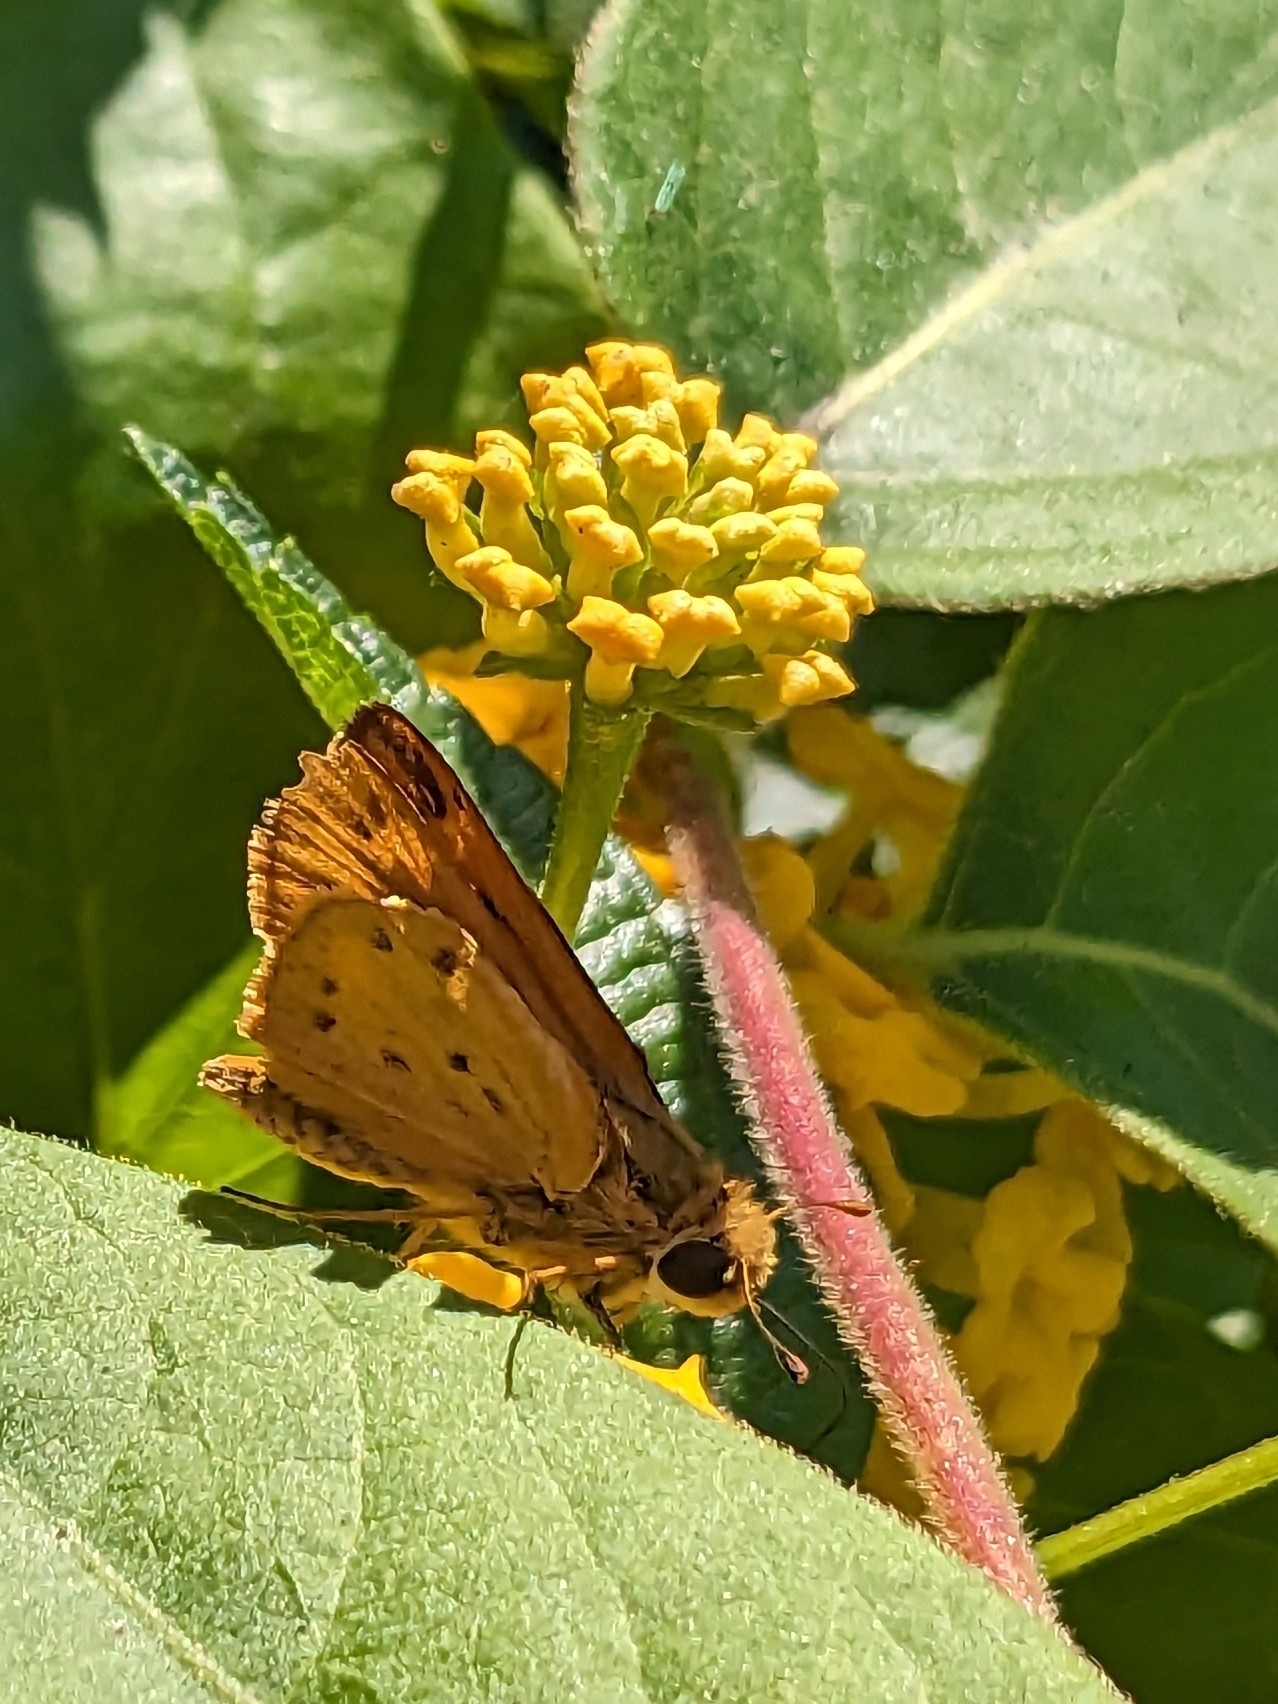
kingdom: Animalia
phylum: Arthropoda
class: Insecta
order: Lepidoptera
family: Hesperiidae
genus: Hylephila
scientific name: Hylephila phyleus
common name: Fiery skipper
